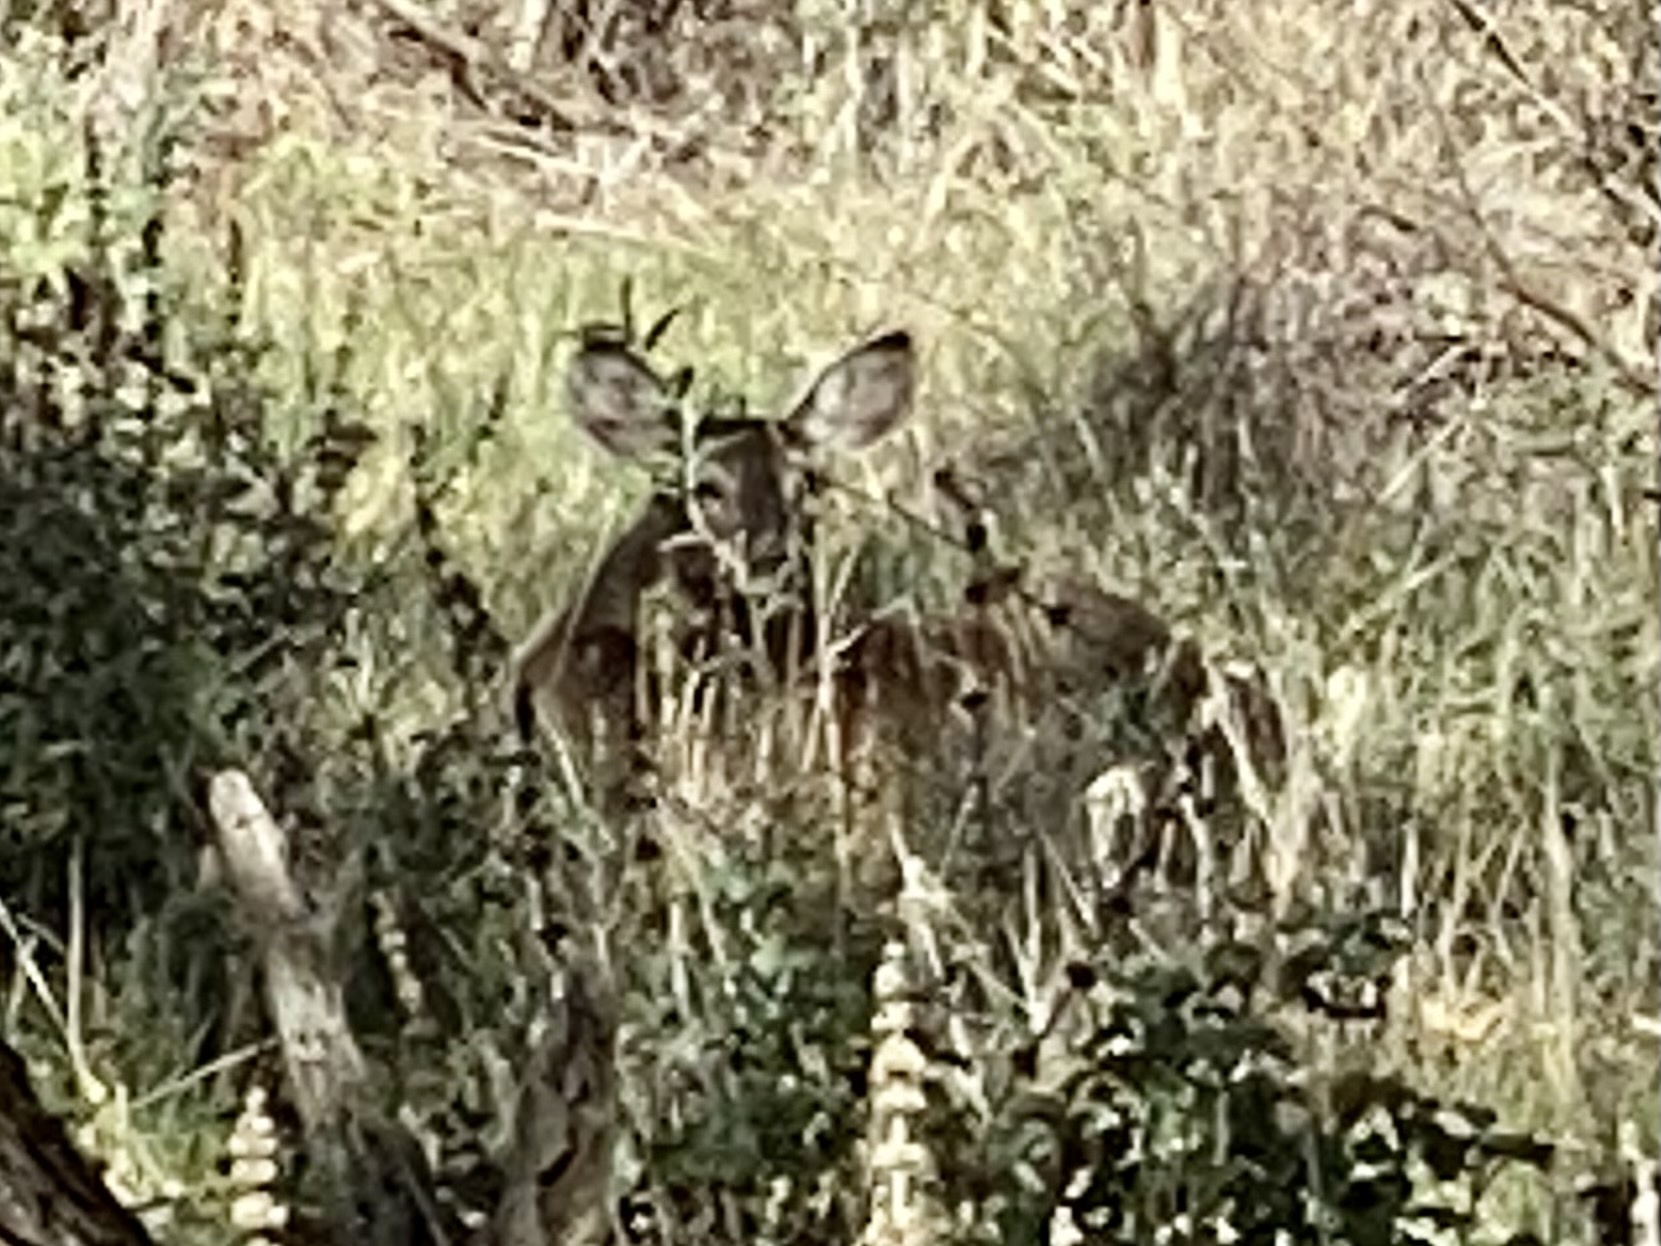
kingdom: Animalia
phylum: Chordata
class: Mammalia
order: Artiodactyla
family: Cervidae
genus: Odocoileus
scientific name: Odocoileus virginianus
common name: White-tailed deer
